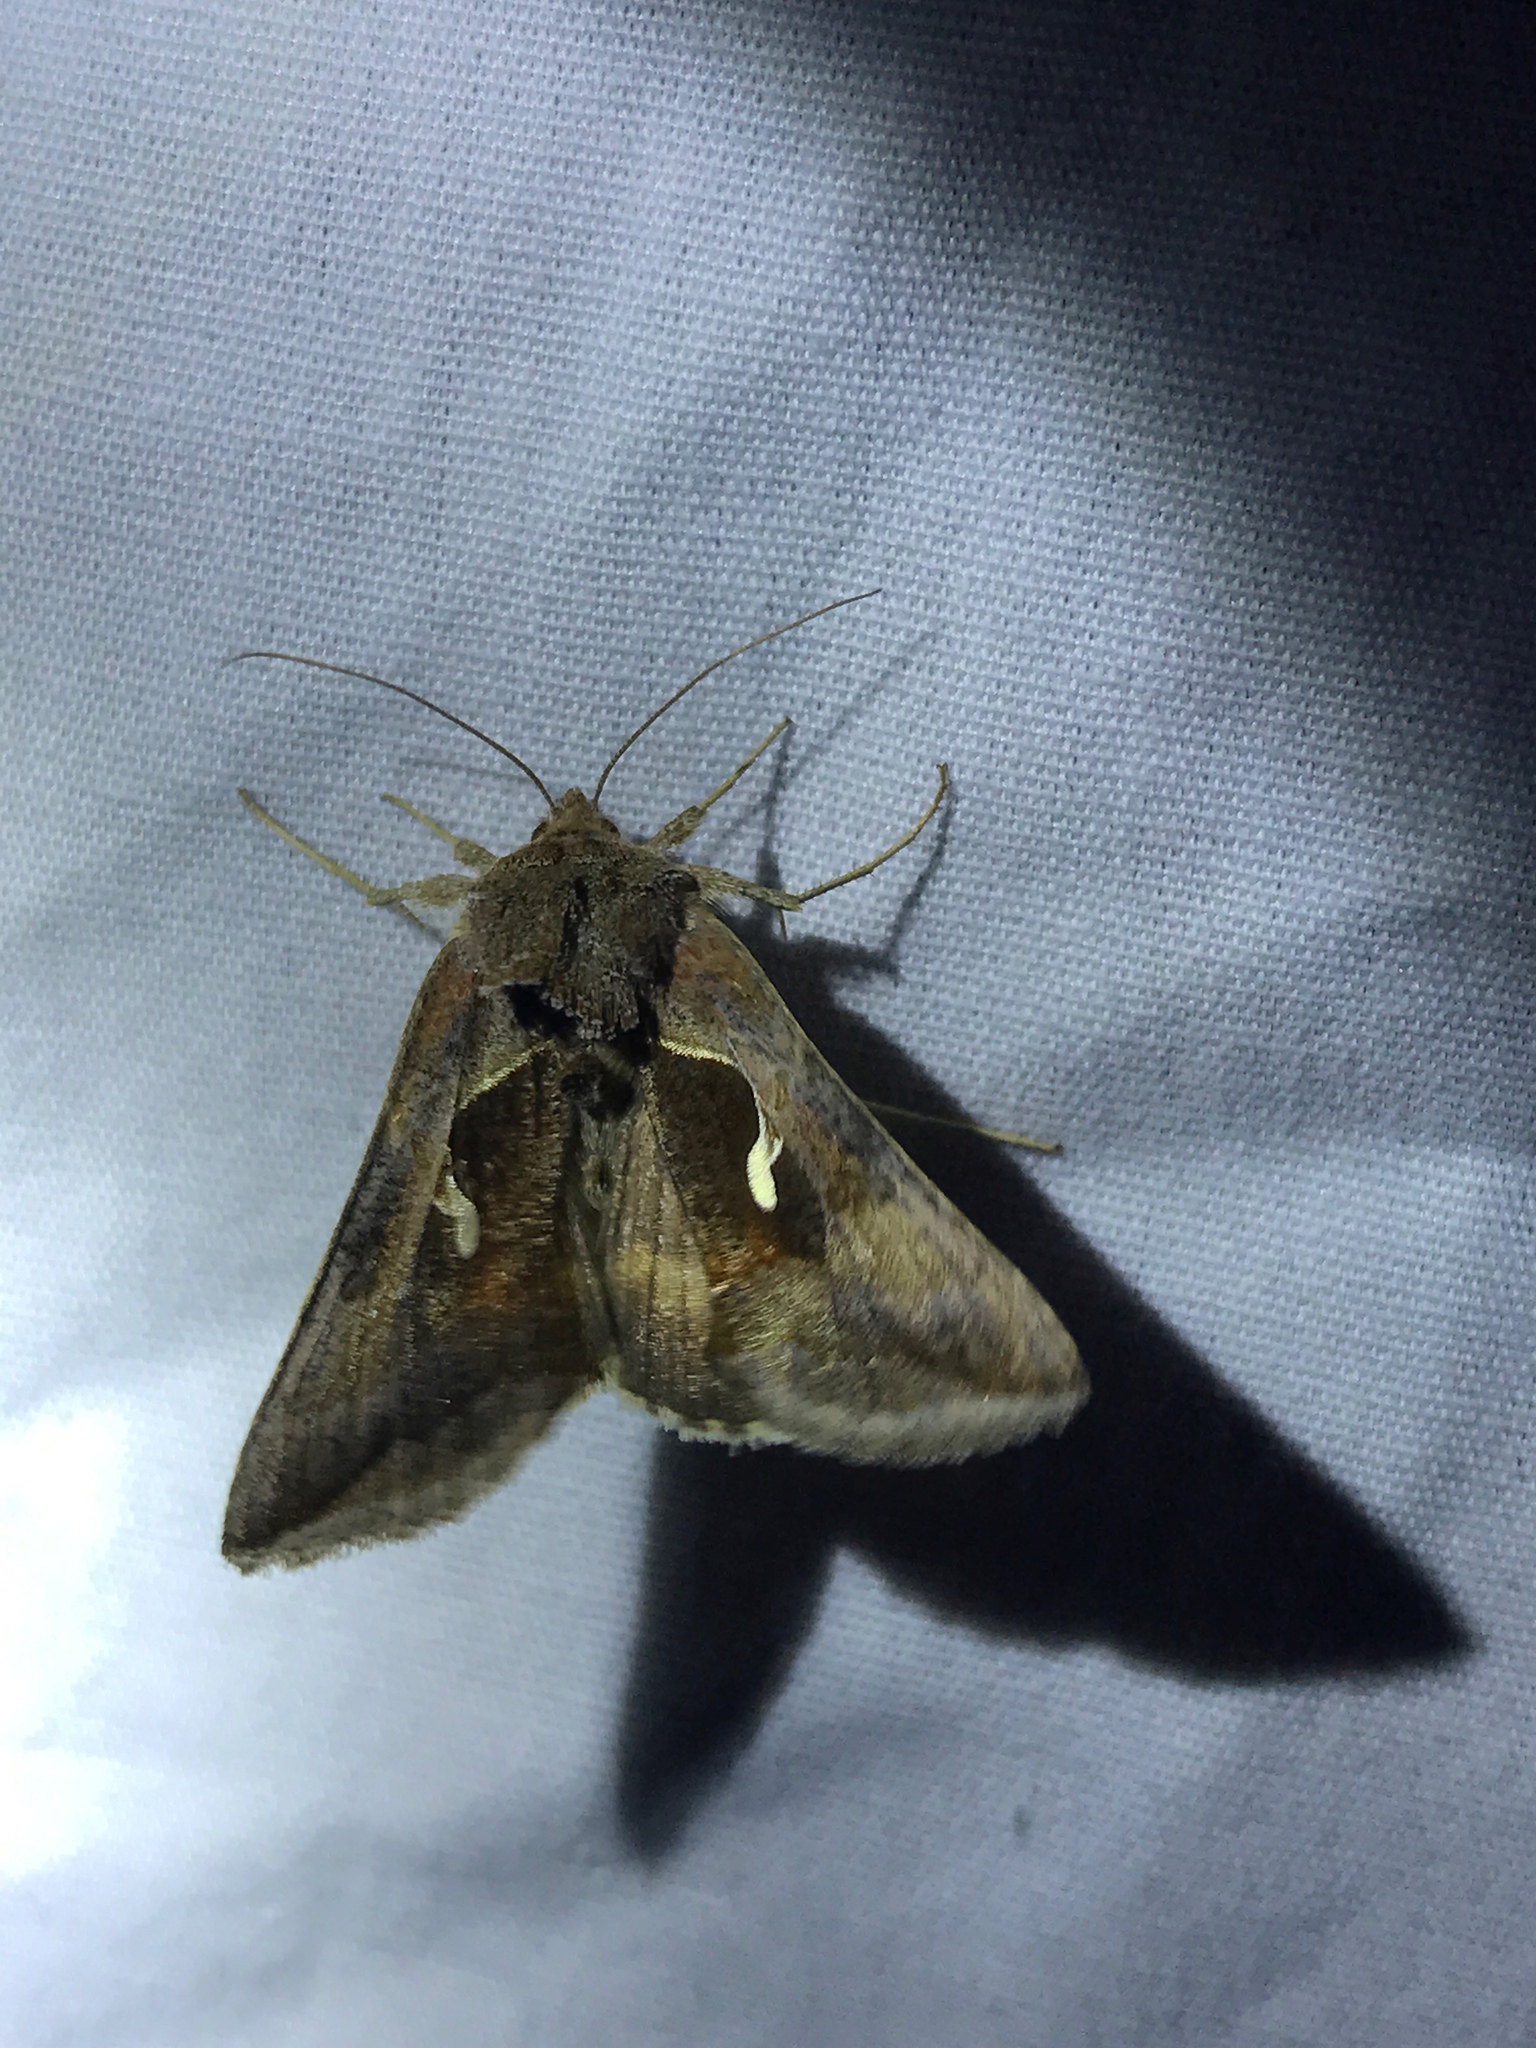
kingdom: Animalia
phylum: Arthropoda
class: Insecta
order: Lepidoptera
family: Noctuidae
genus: Anagrapha
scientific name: Anagrapha falcifera
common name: Celery looper
